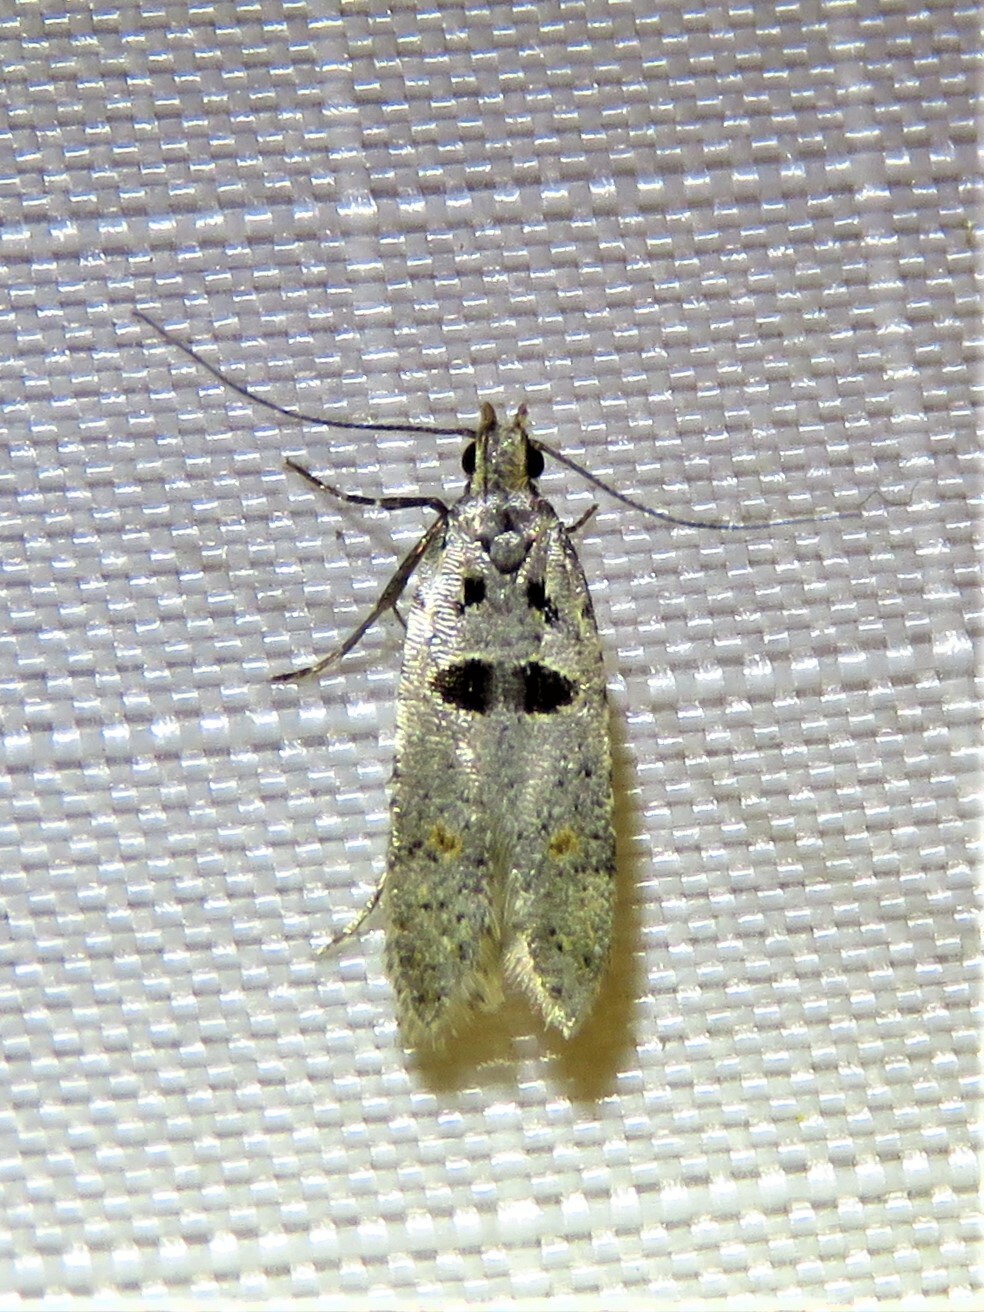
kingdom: Animalia
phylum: Arthropoda
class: Insecta
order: Lepidoptera
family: Gelechiidae
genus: Deltophora
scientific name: Deltophora glandiferella
